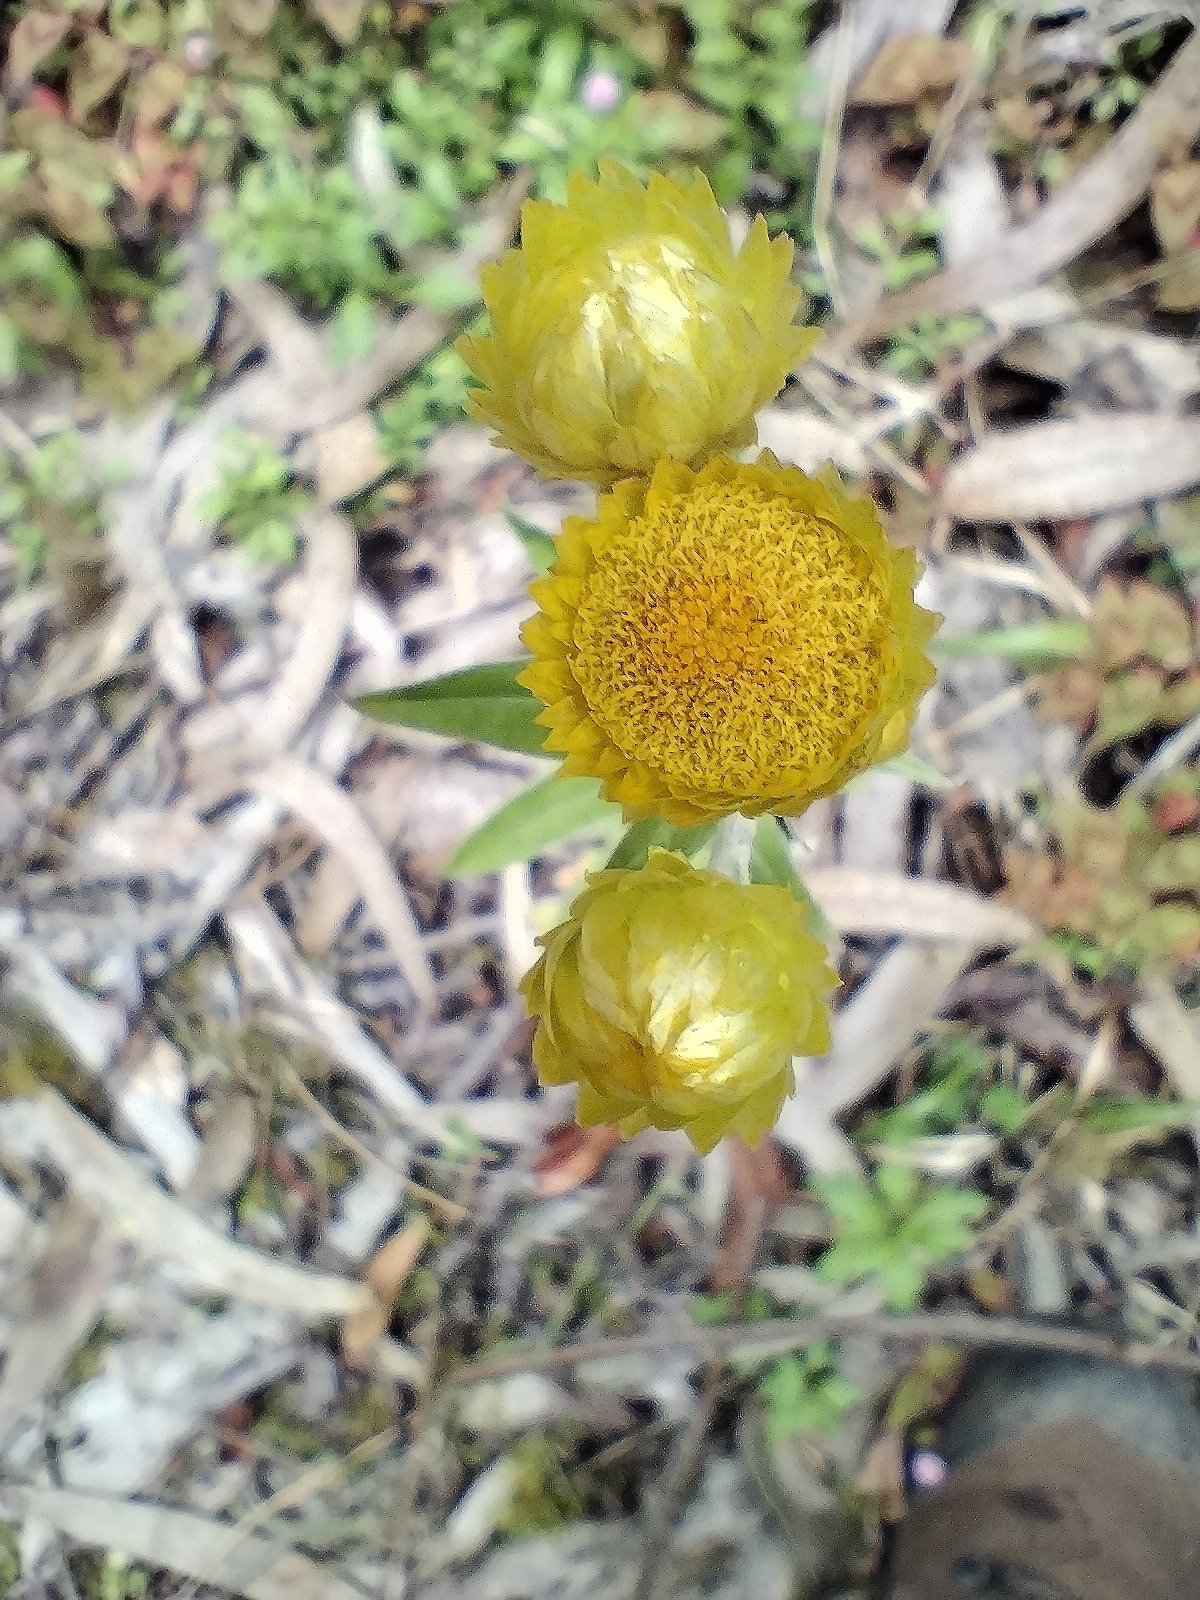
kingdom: Plantae
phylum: Tracheophyta
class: Magnoliopsida
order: Asterales
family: Asteraceae
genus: Helichrysum
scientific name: Helichrysum foetidum
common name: Stinking everlasting
